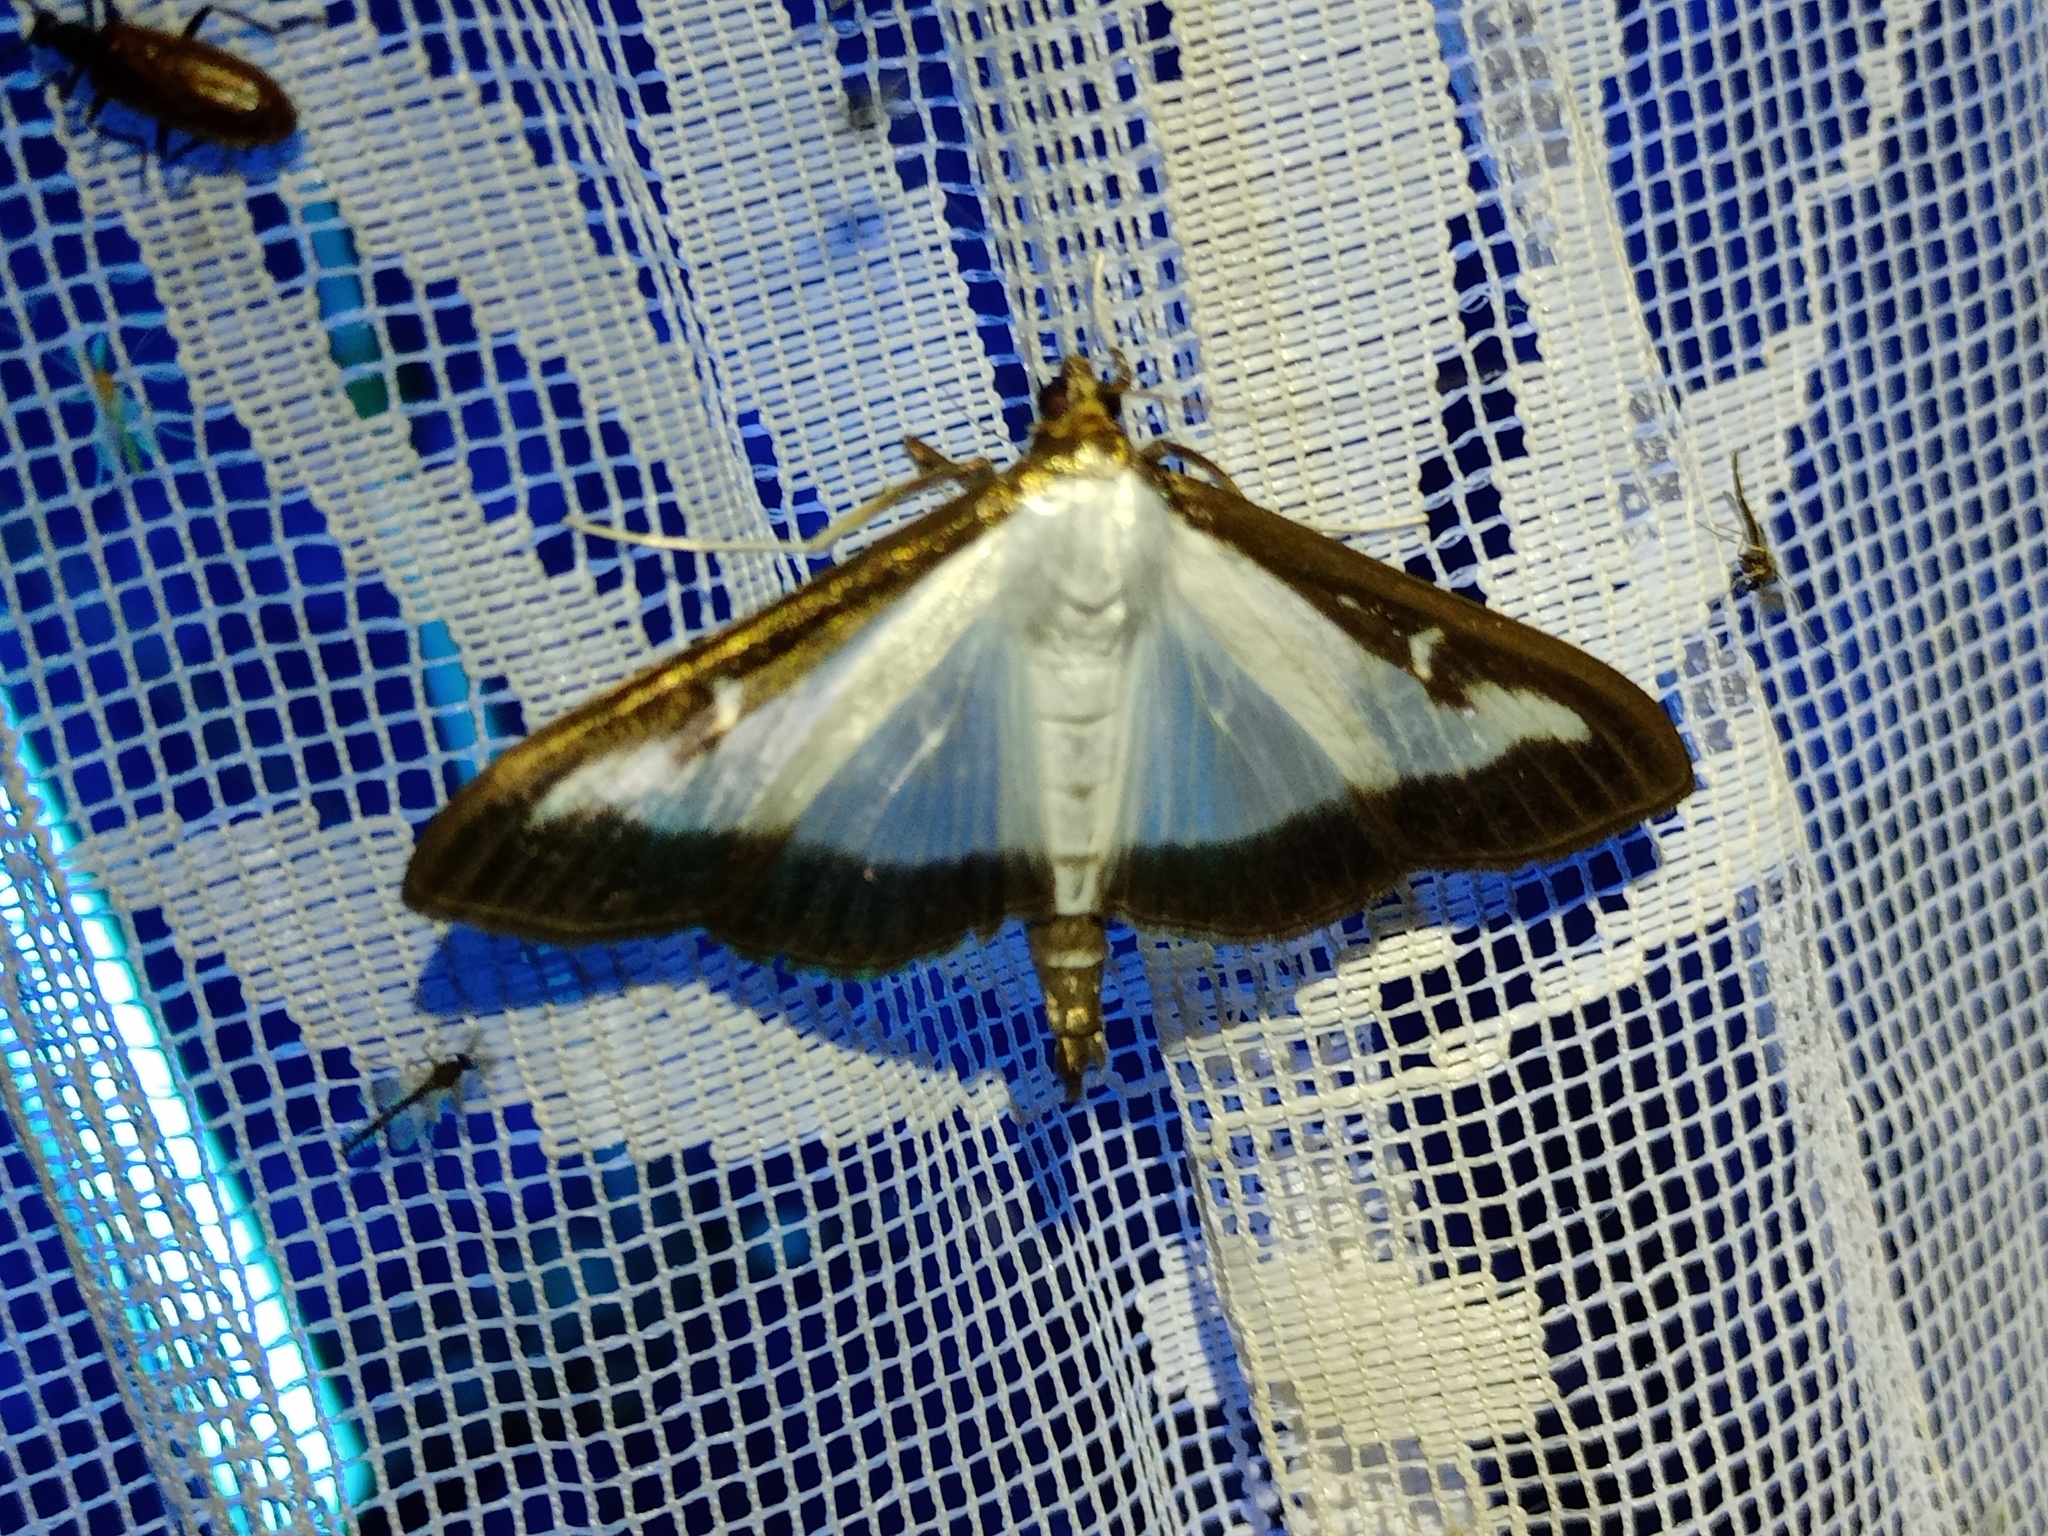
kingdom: Animalia
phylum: Arthropoda
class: Insecta
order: Lepidoptera
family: Crambidae
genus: Cydalima
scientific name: Cydalima perspectalis
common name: Box tree moth
